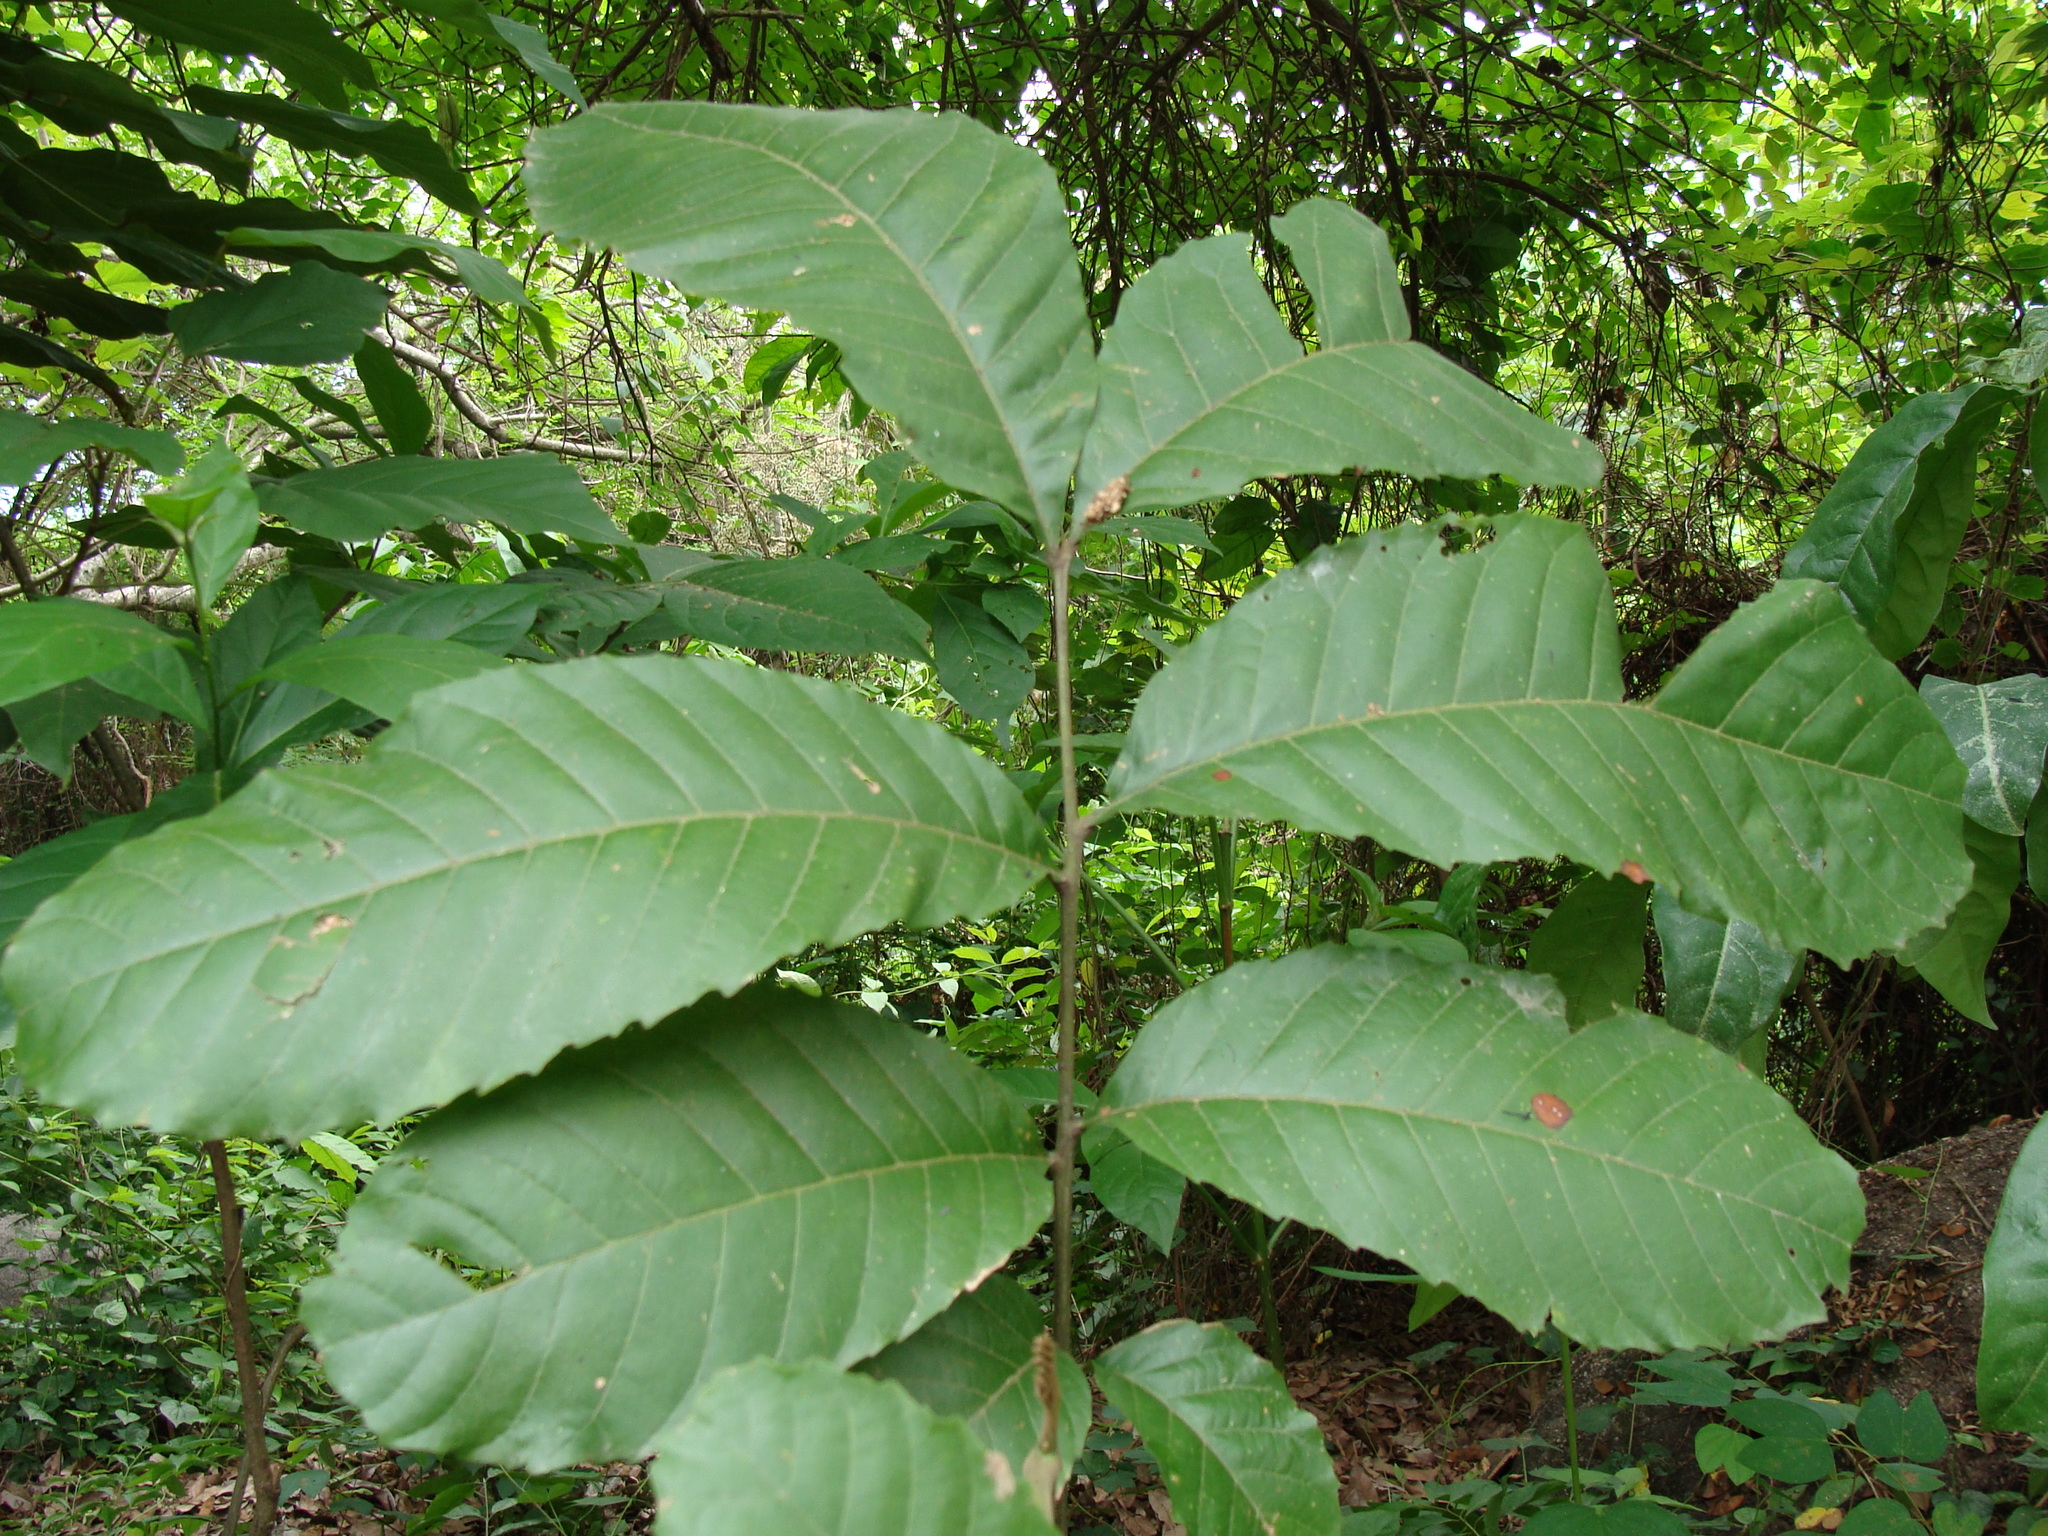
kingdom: Plantae
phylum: Tracheophyta
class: Magnoliopsida
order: Sapindales
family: Sapindaceae
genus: Cupania
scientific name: Cupania dentata
